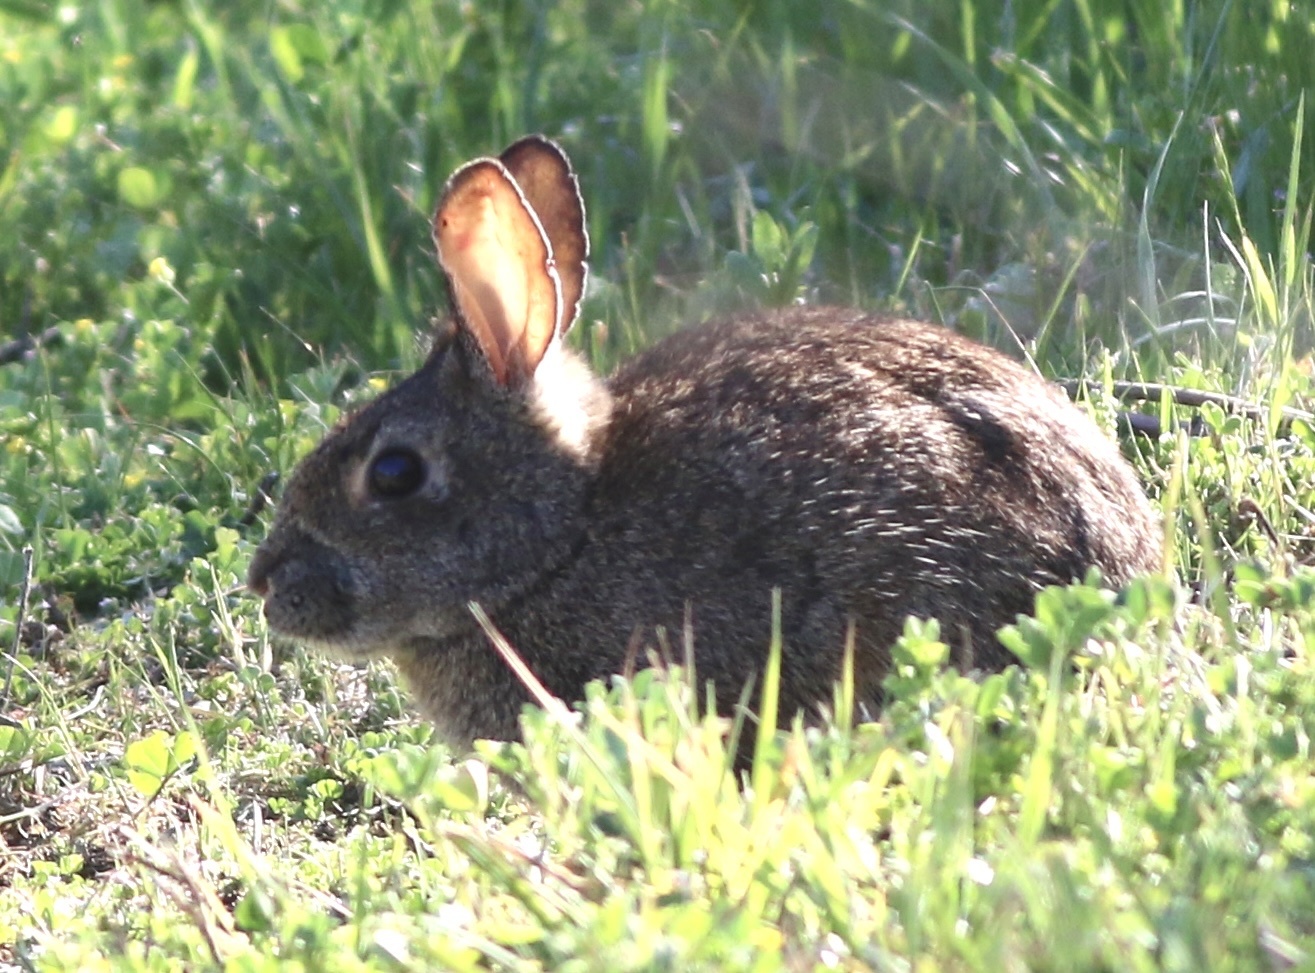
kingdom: Animalia
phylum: Chordata
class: Mammalia
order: Lagomorpha
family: Leporidae
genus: Sylvilagus
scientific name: Sylvilagus bachmani
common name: Brush rabbit
